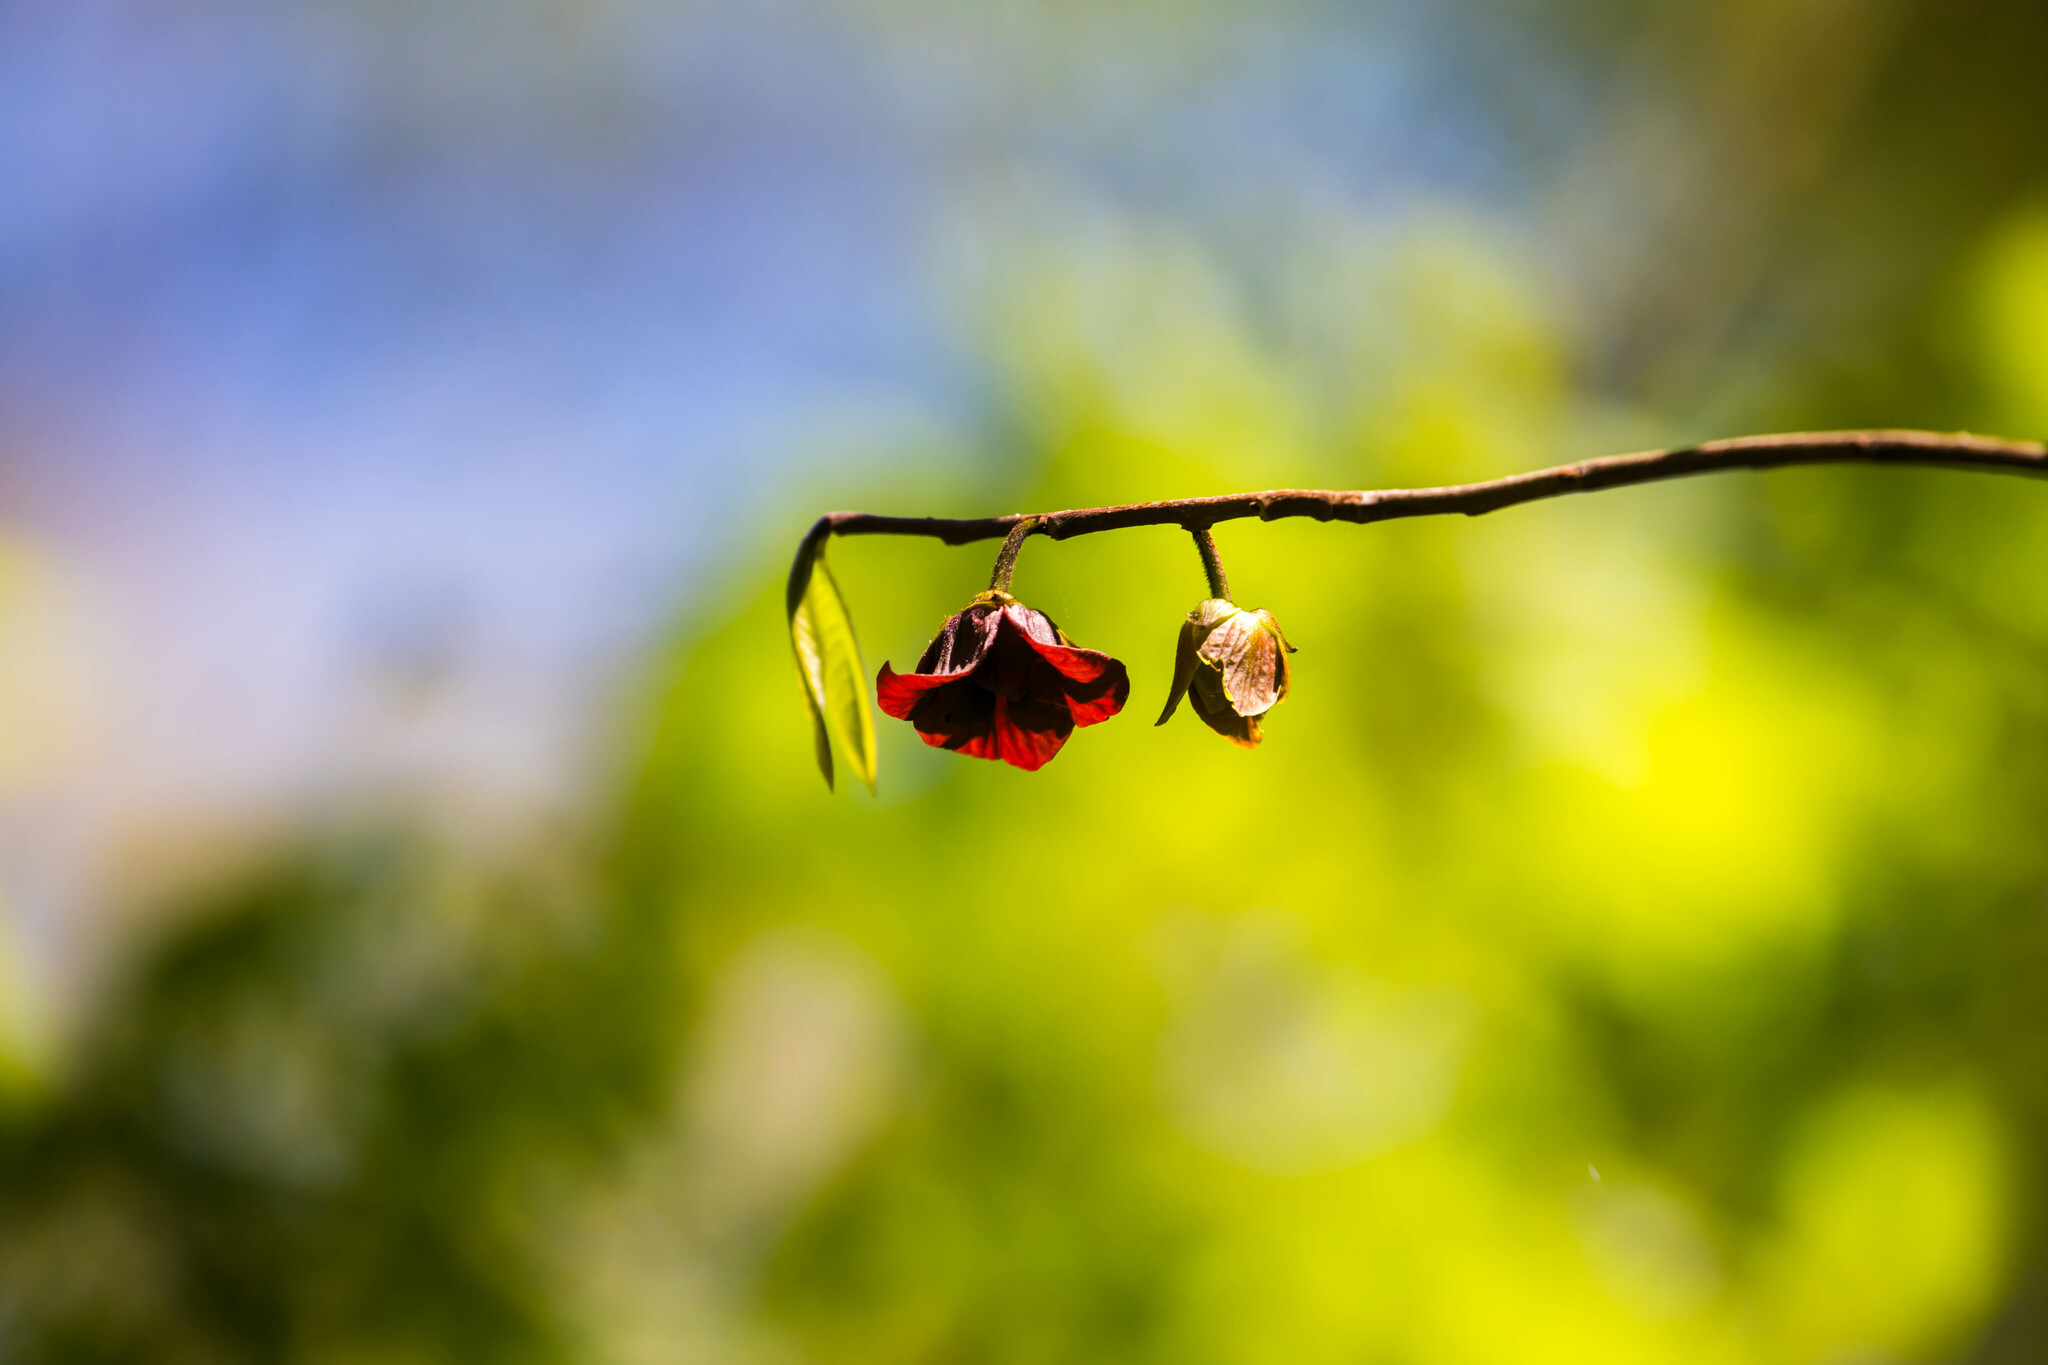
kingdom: Plantae
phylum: Tracheophyta
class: Magnoliopsida
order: Magnoliales
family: Annonaceae
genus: Asimina
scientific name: Asimina triloba
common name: Dog-banana
